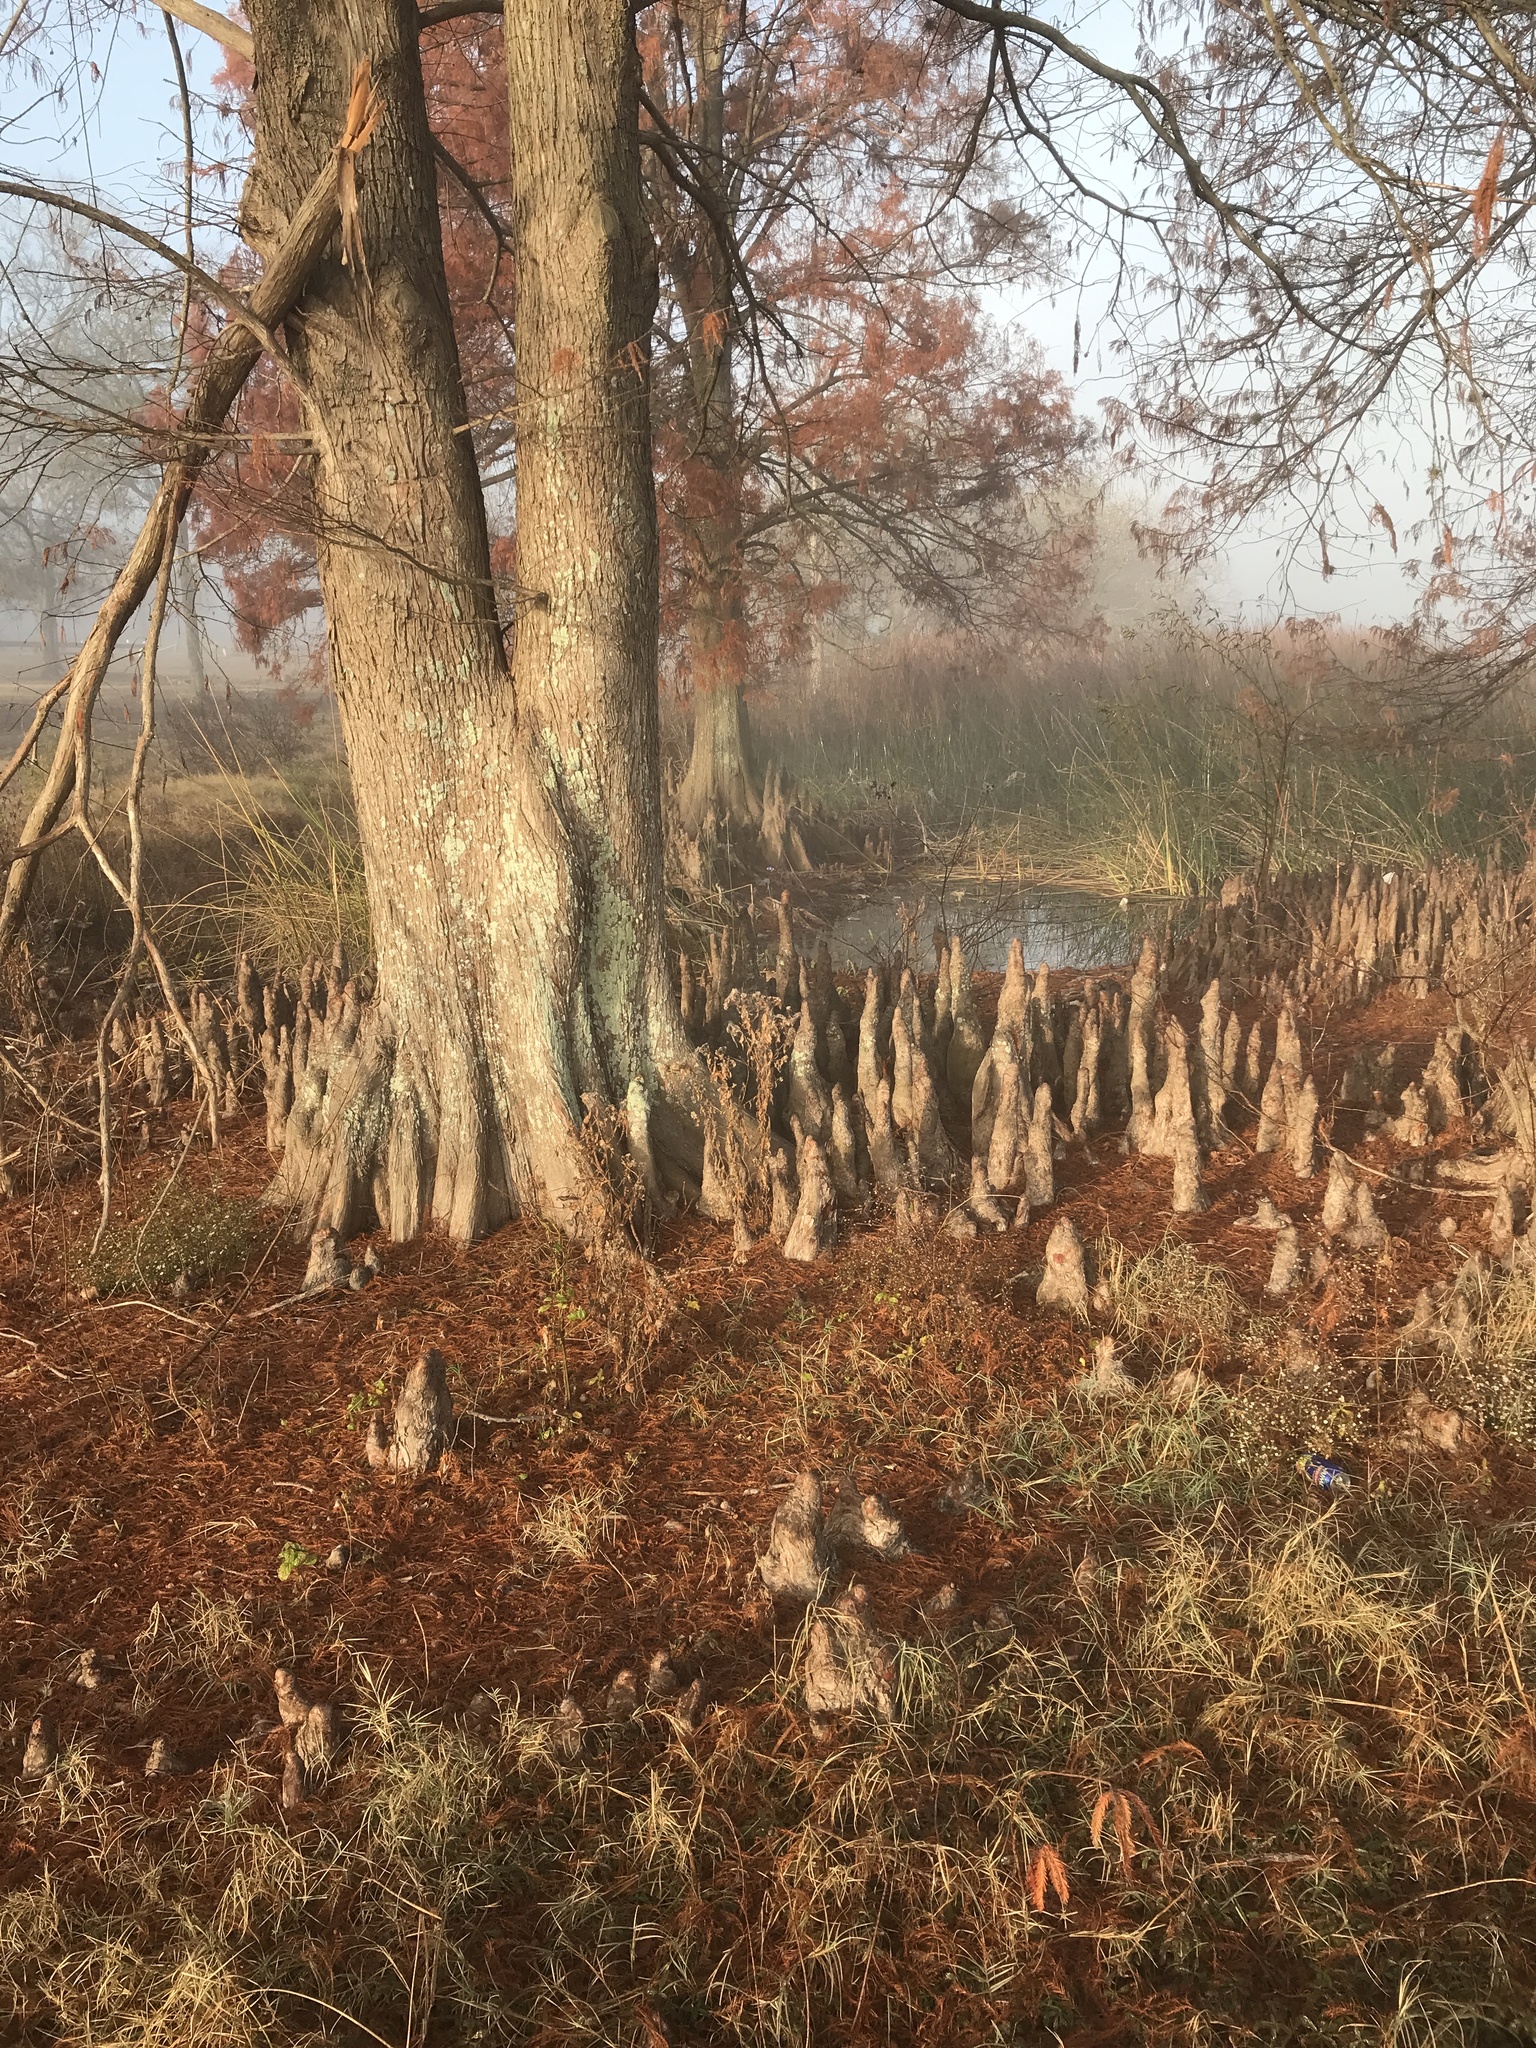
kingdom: Plantae
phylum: Tracheophyta
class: Pinopsida
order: Pinales
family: Cupressaceae
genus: Taxodium
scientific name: Taxodium distichum
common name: Bald cypress
